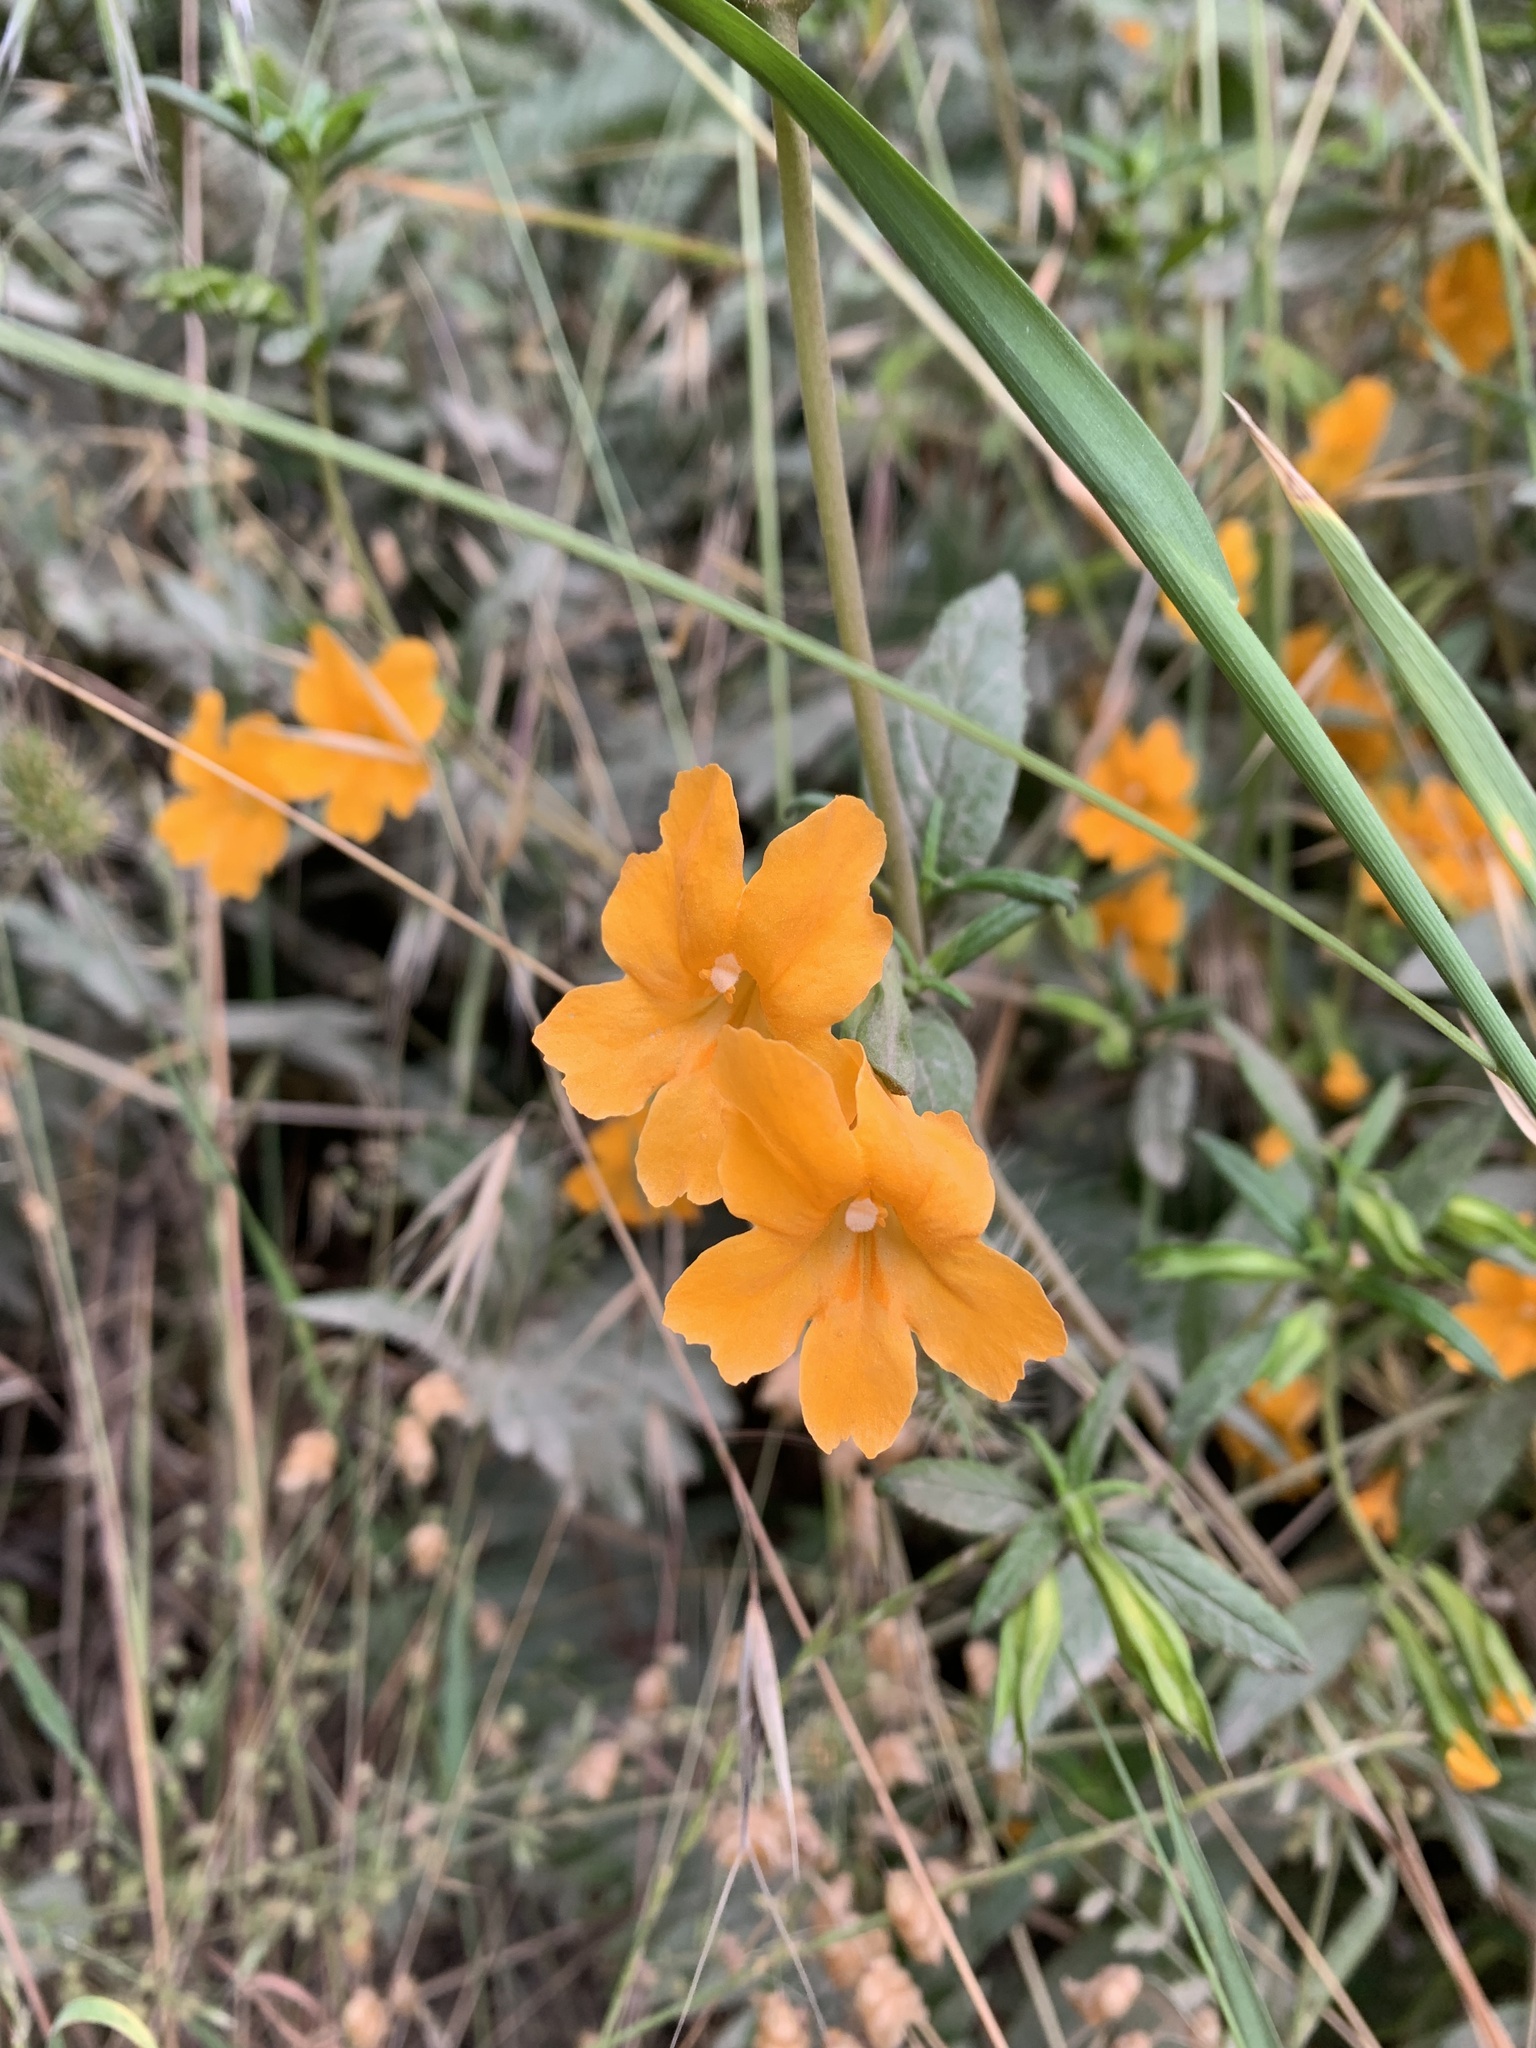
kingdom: Plantae
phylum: Tracheophyta
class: Magnoliopsida
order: Lamiales
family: Phrymaceae
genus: Diplacus
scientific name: Diplacus aurantiacus
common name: Bush monkey-flower
